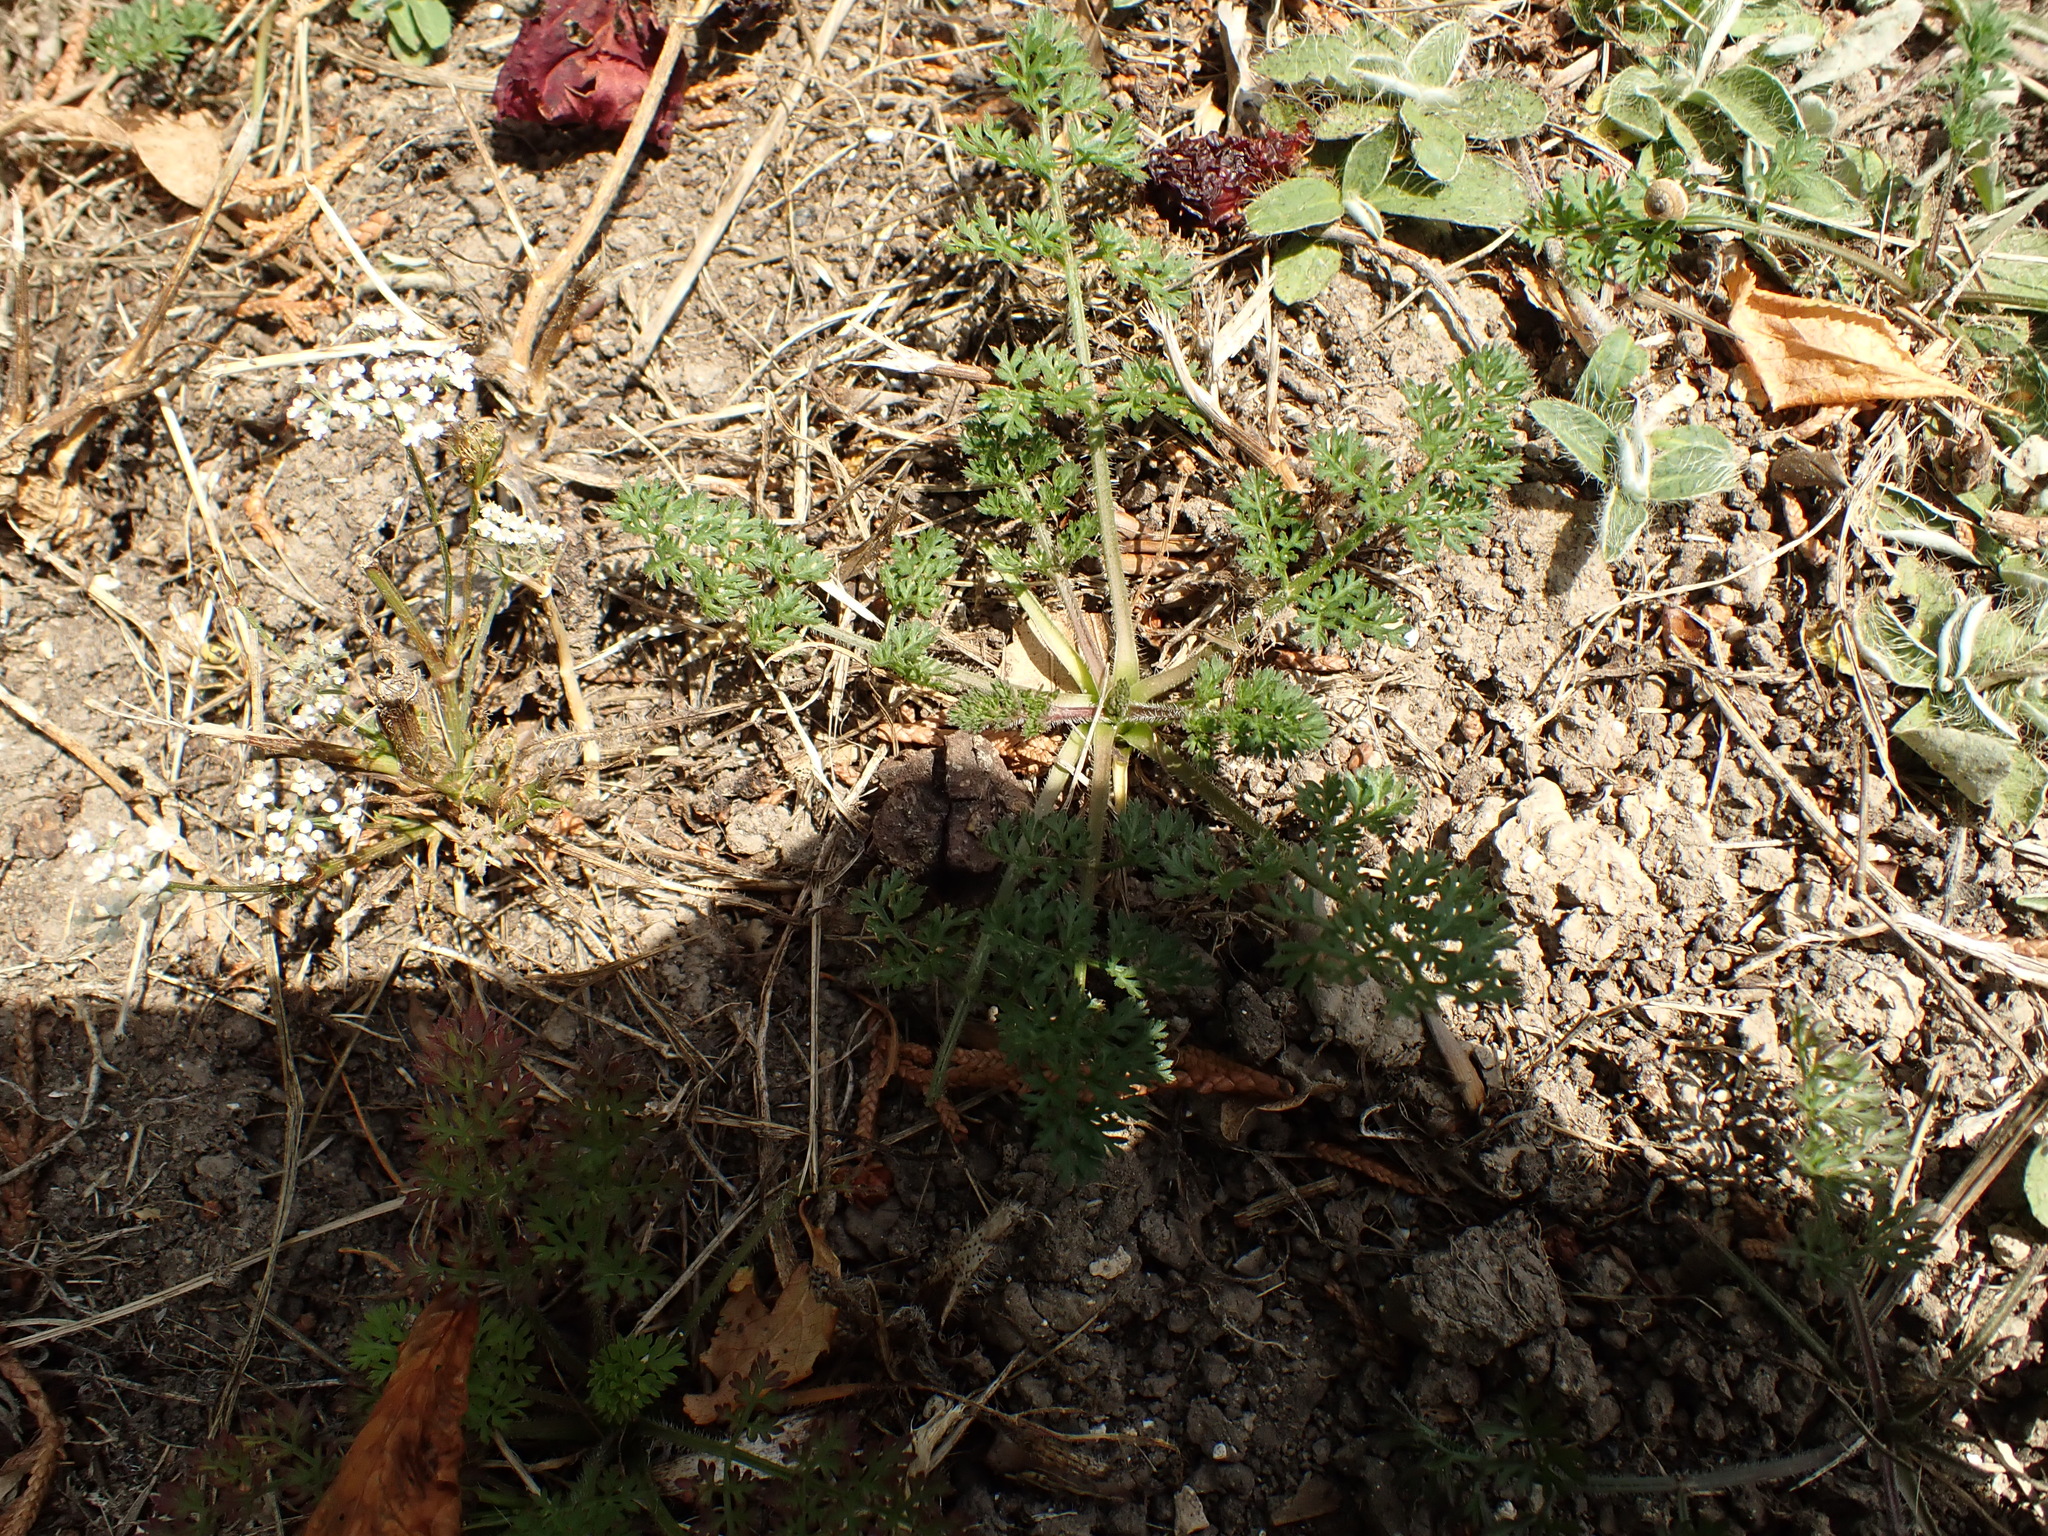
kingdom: Plantae
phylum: Tracheophyta
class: Magnoliopsida
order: Apiales
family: Apiaceae
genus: Daucus
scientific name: Daucus carota
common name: Wild carrot
